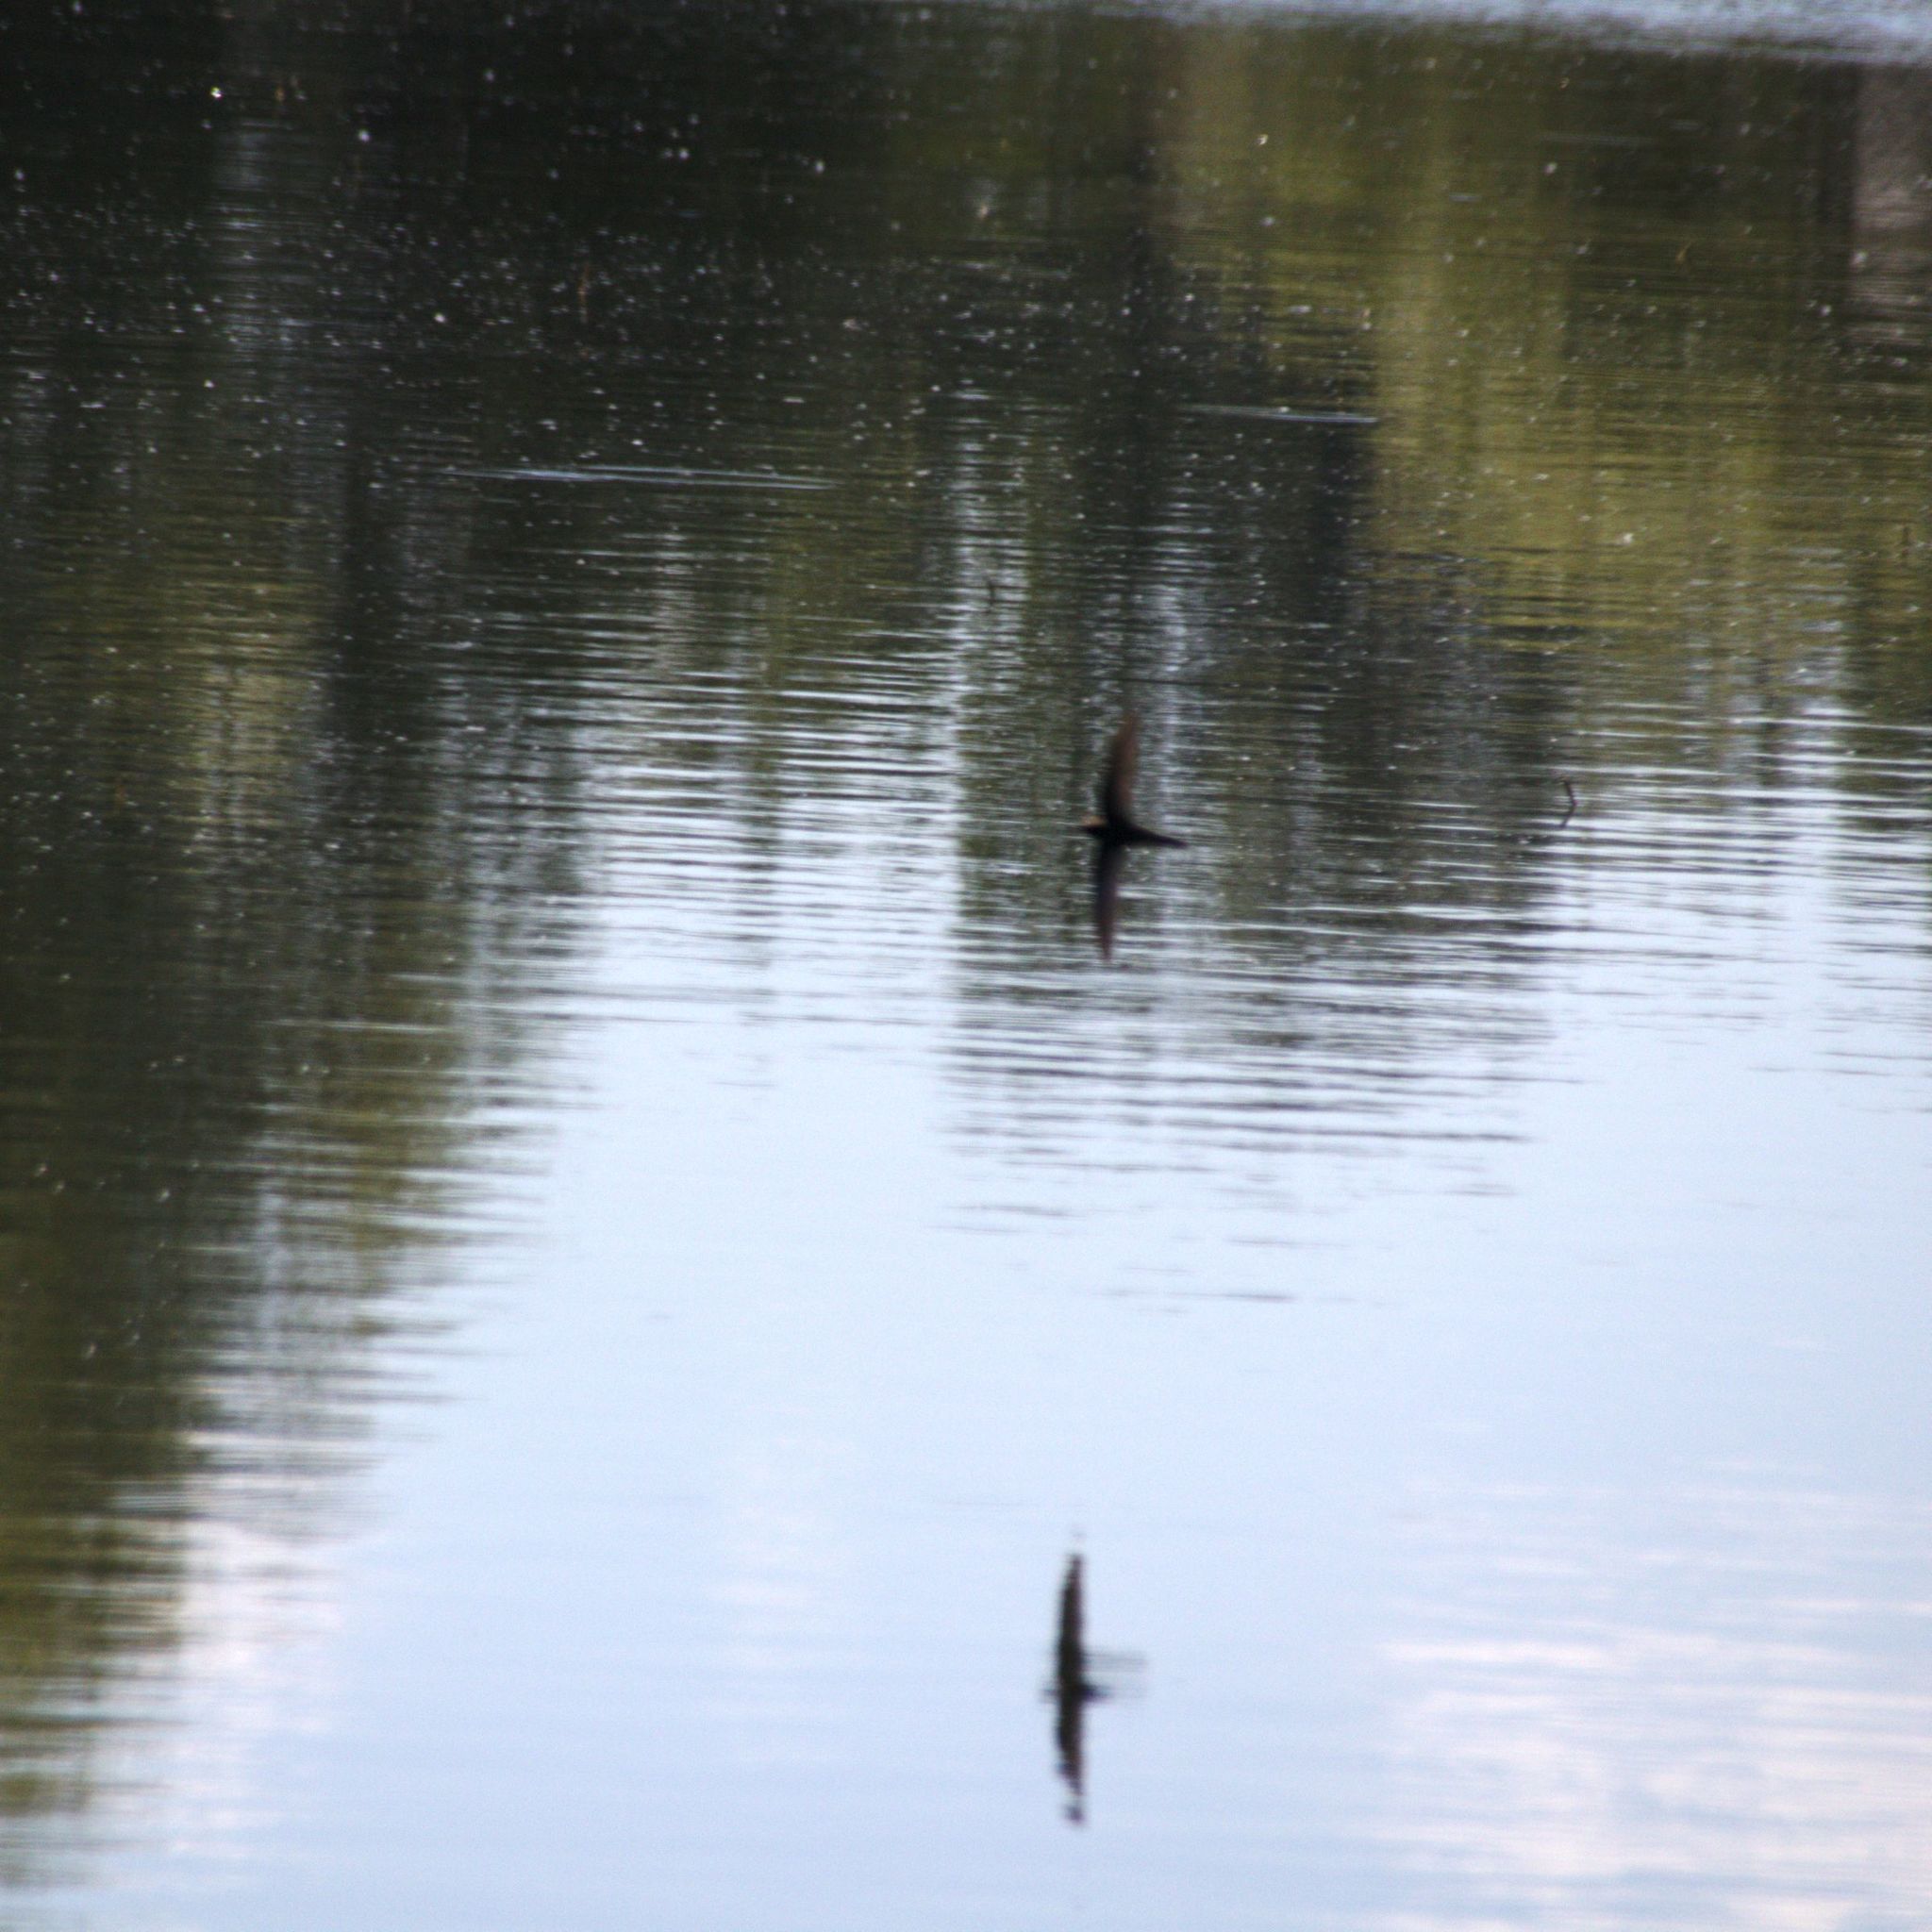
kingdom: Animalia
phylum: Chordata
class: Aves
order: Apodiformes
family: Apodidae
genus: Apus
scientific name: Apus apus
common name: Common swift
